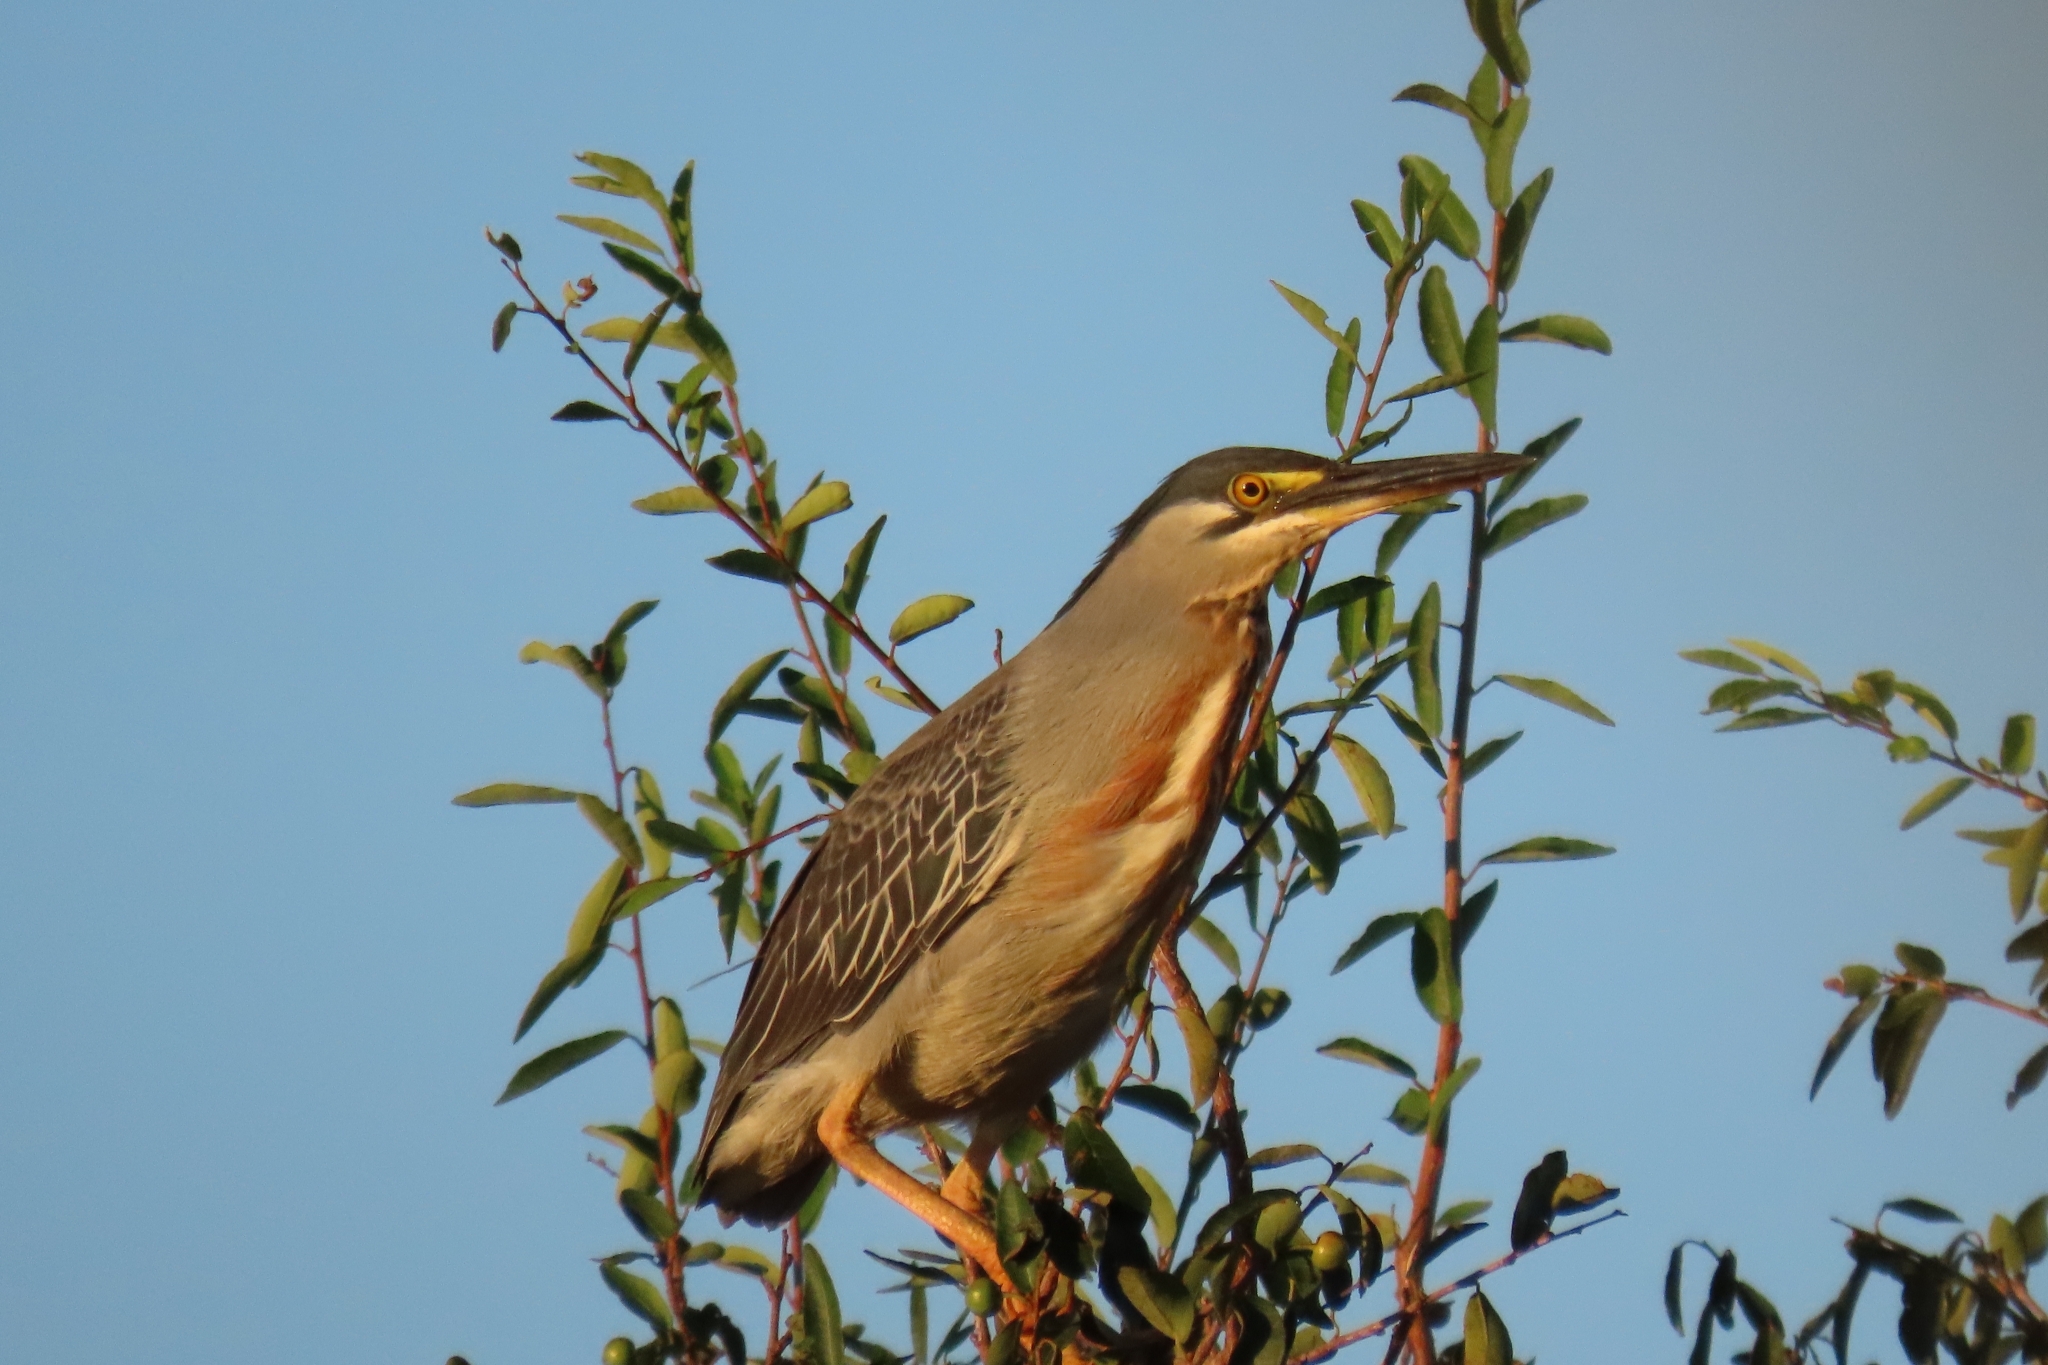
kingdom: Animalia
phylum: Chordata
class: Aves
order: Pelecaniformes
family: Ardeidae
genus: Butorides
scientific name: Butorides striata
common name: Striated heron
